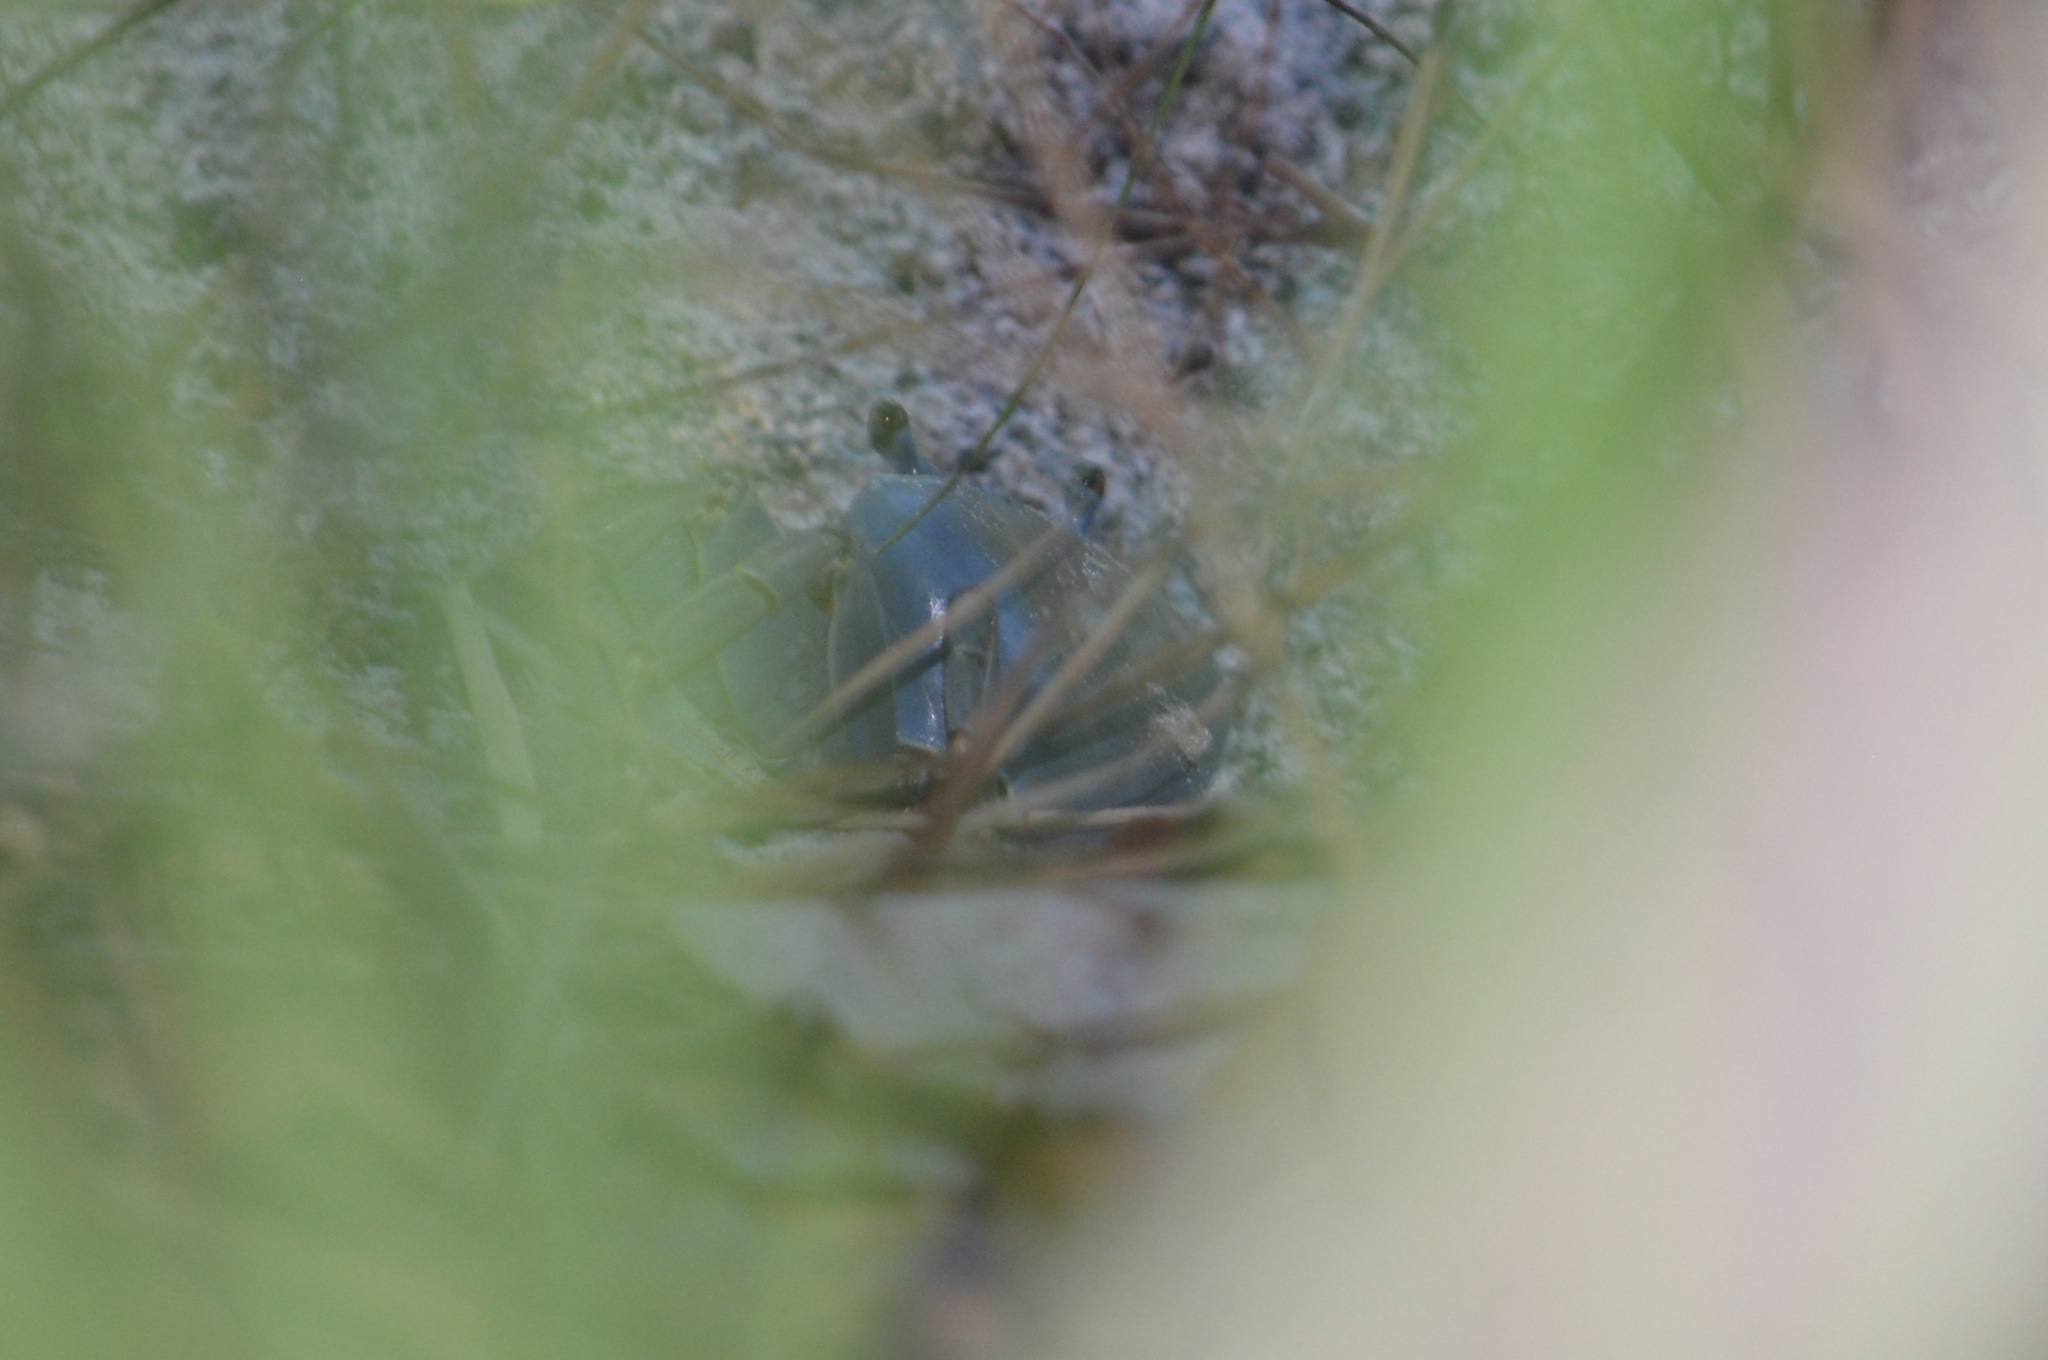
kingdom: Animalia
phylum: Arthropoda
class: Malacostraca
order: Decapoda
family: Gecarcinidae
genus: Cardisoma
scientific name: Cardisoma guanhumi
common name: Great land crab
